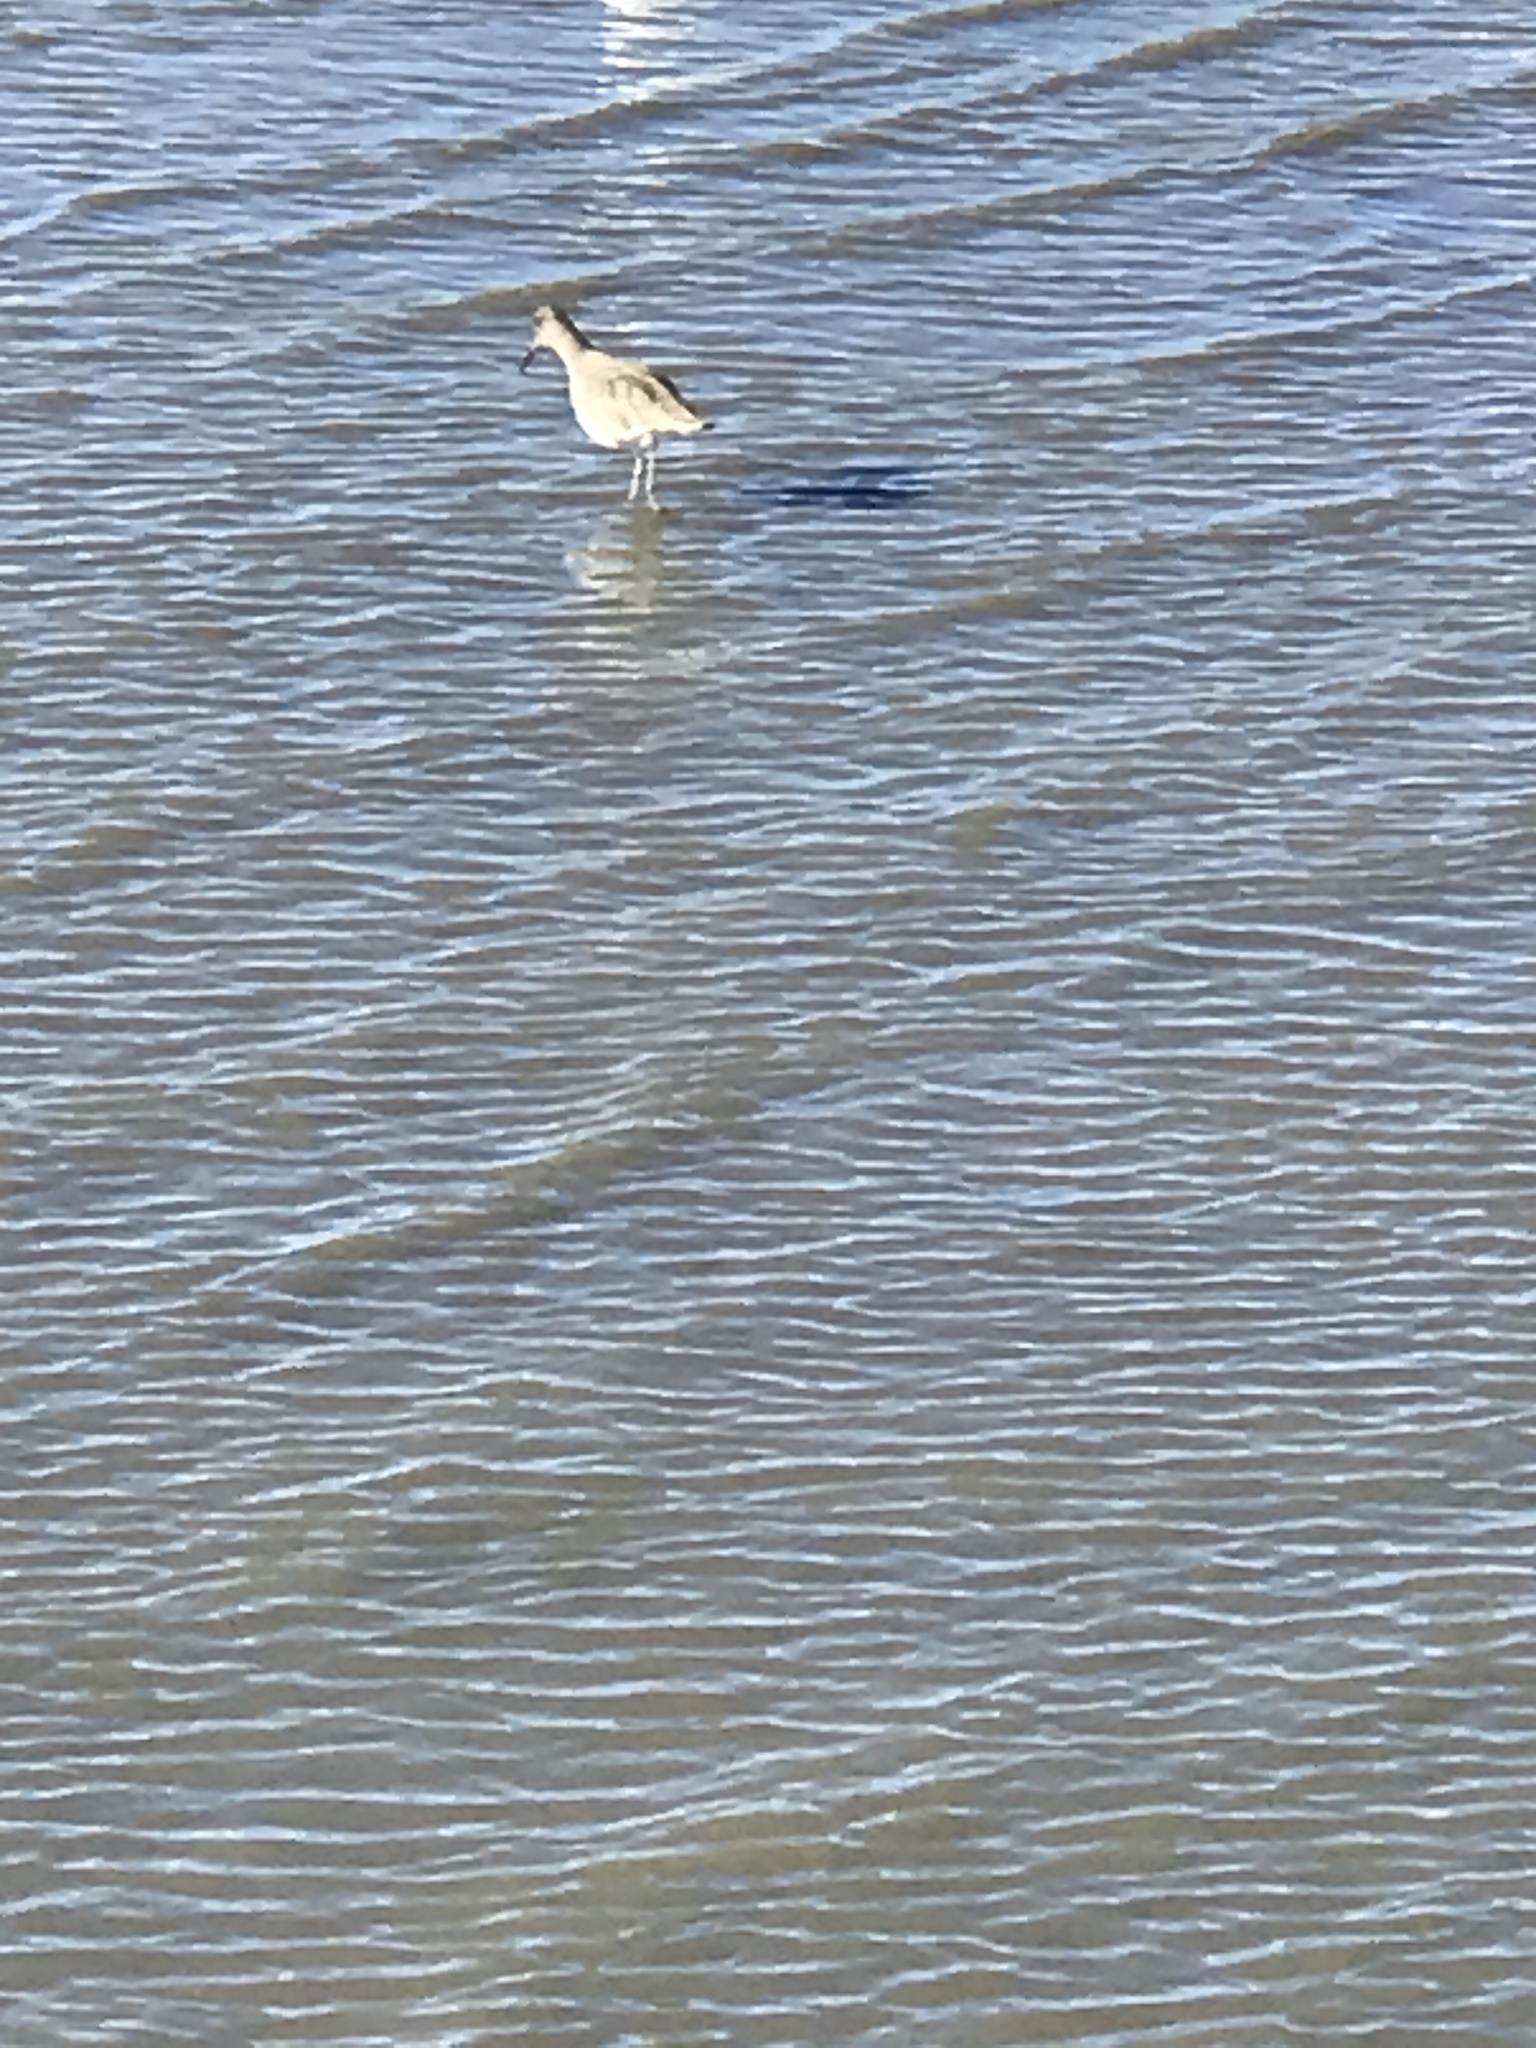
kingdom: Animalia
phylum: Chordata
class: Aves
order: Charadriiformes
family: Scolopacidae
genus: Tringa
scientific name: Tringa semipalmata
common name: Willet
